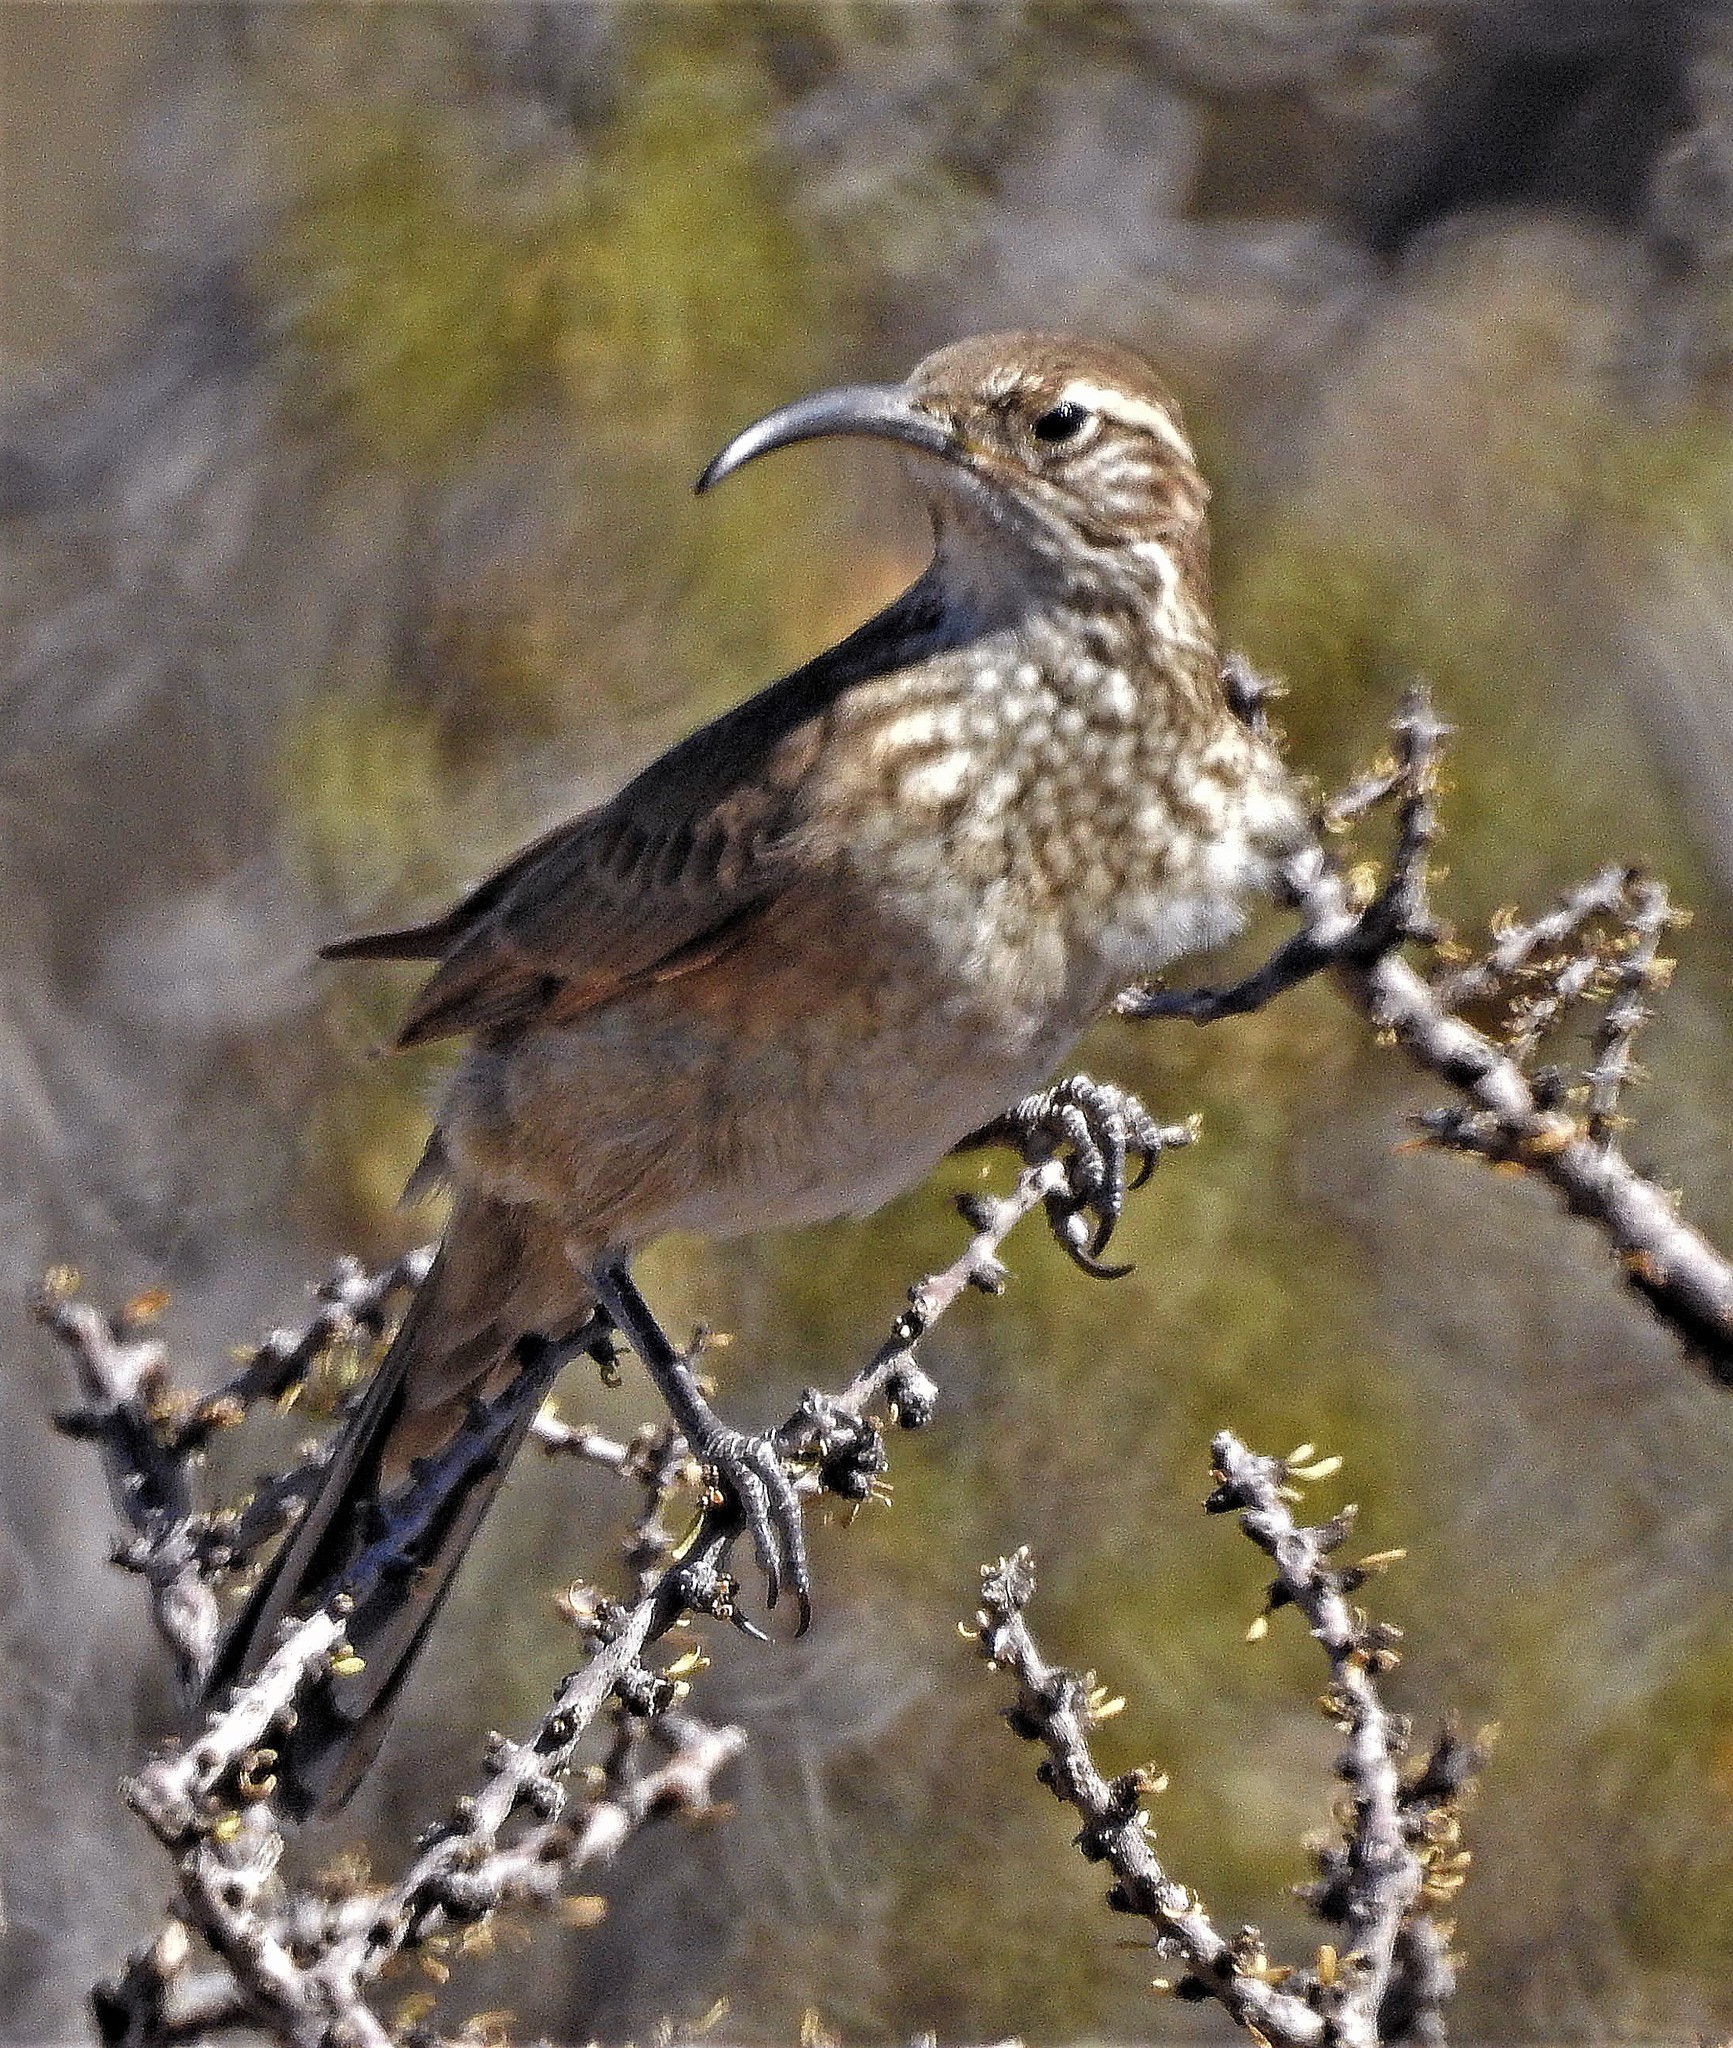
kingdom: Animalia
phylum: Chordata
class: Aves
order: Passeriformes
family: Furnariidae
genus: Upucerthia
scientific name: Upucerthia dumetaria
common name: Scale-throated earthcreeper
